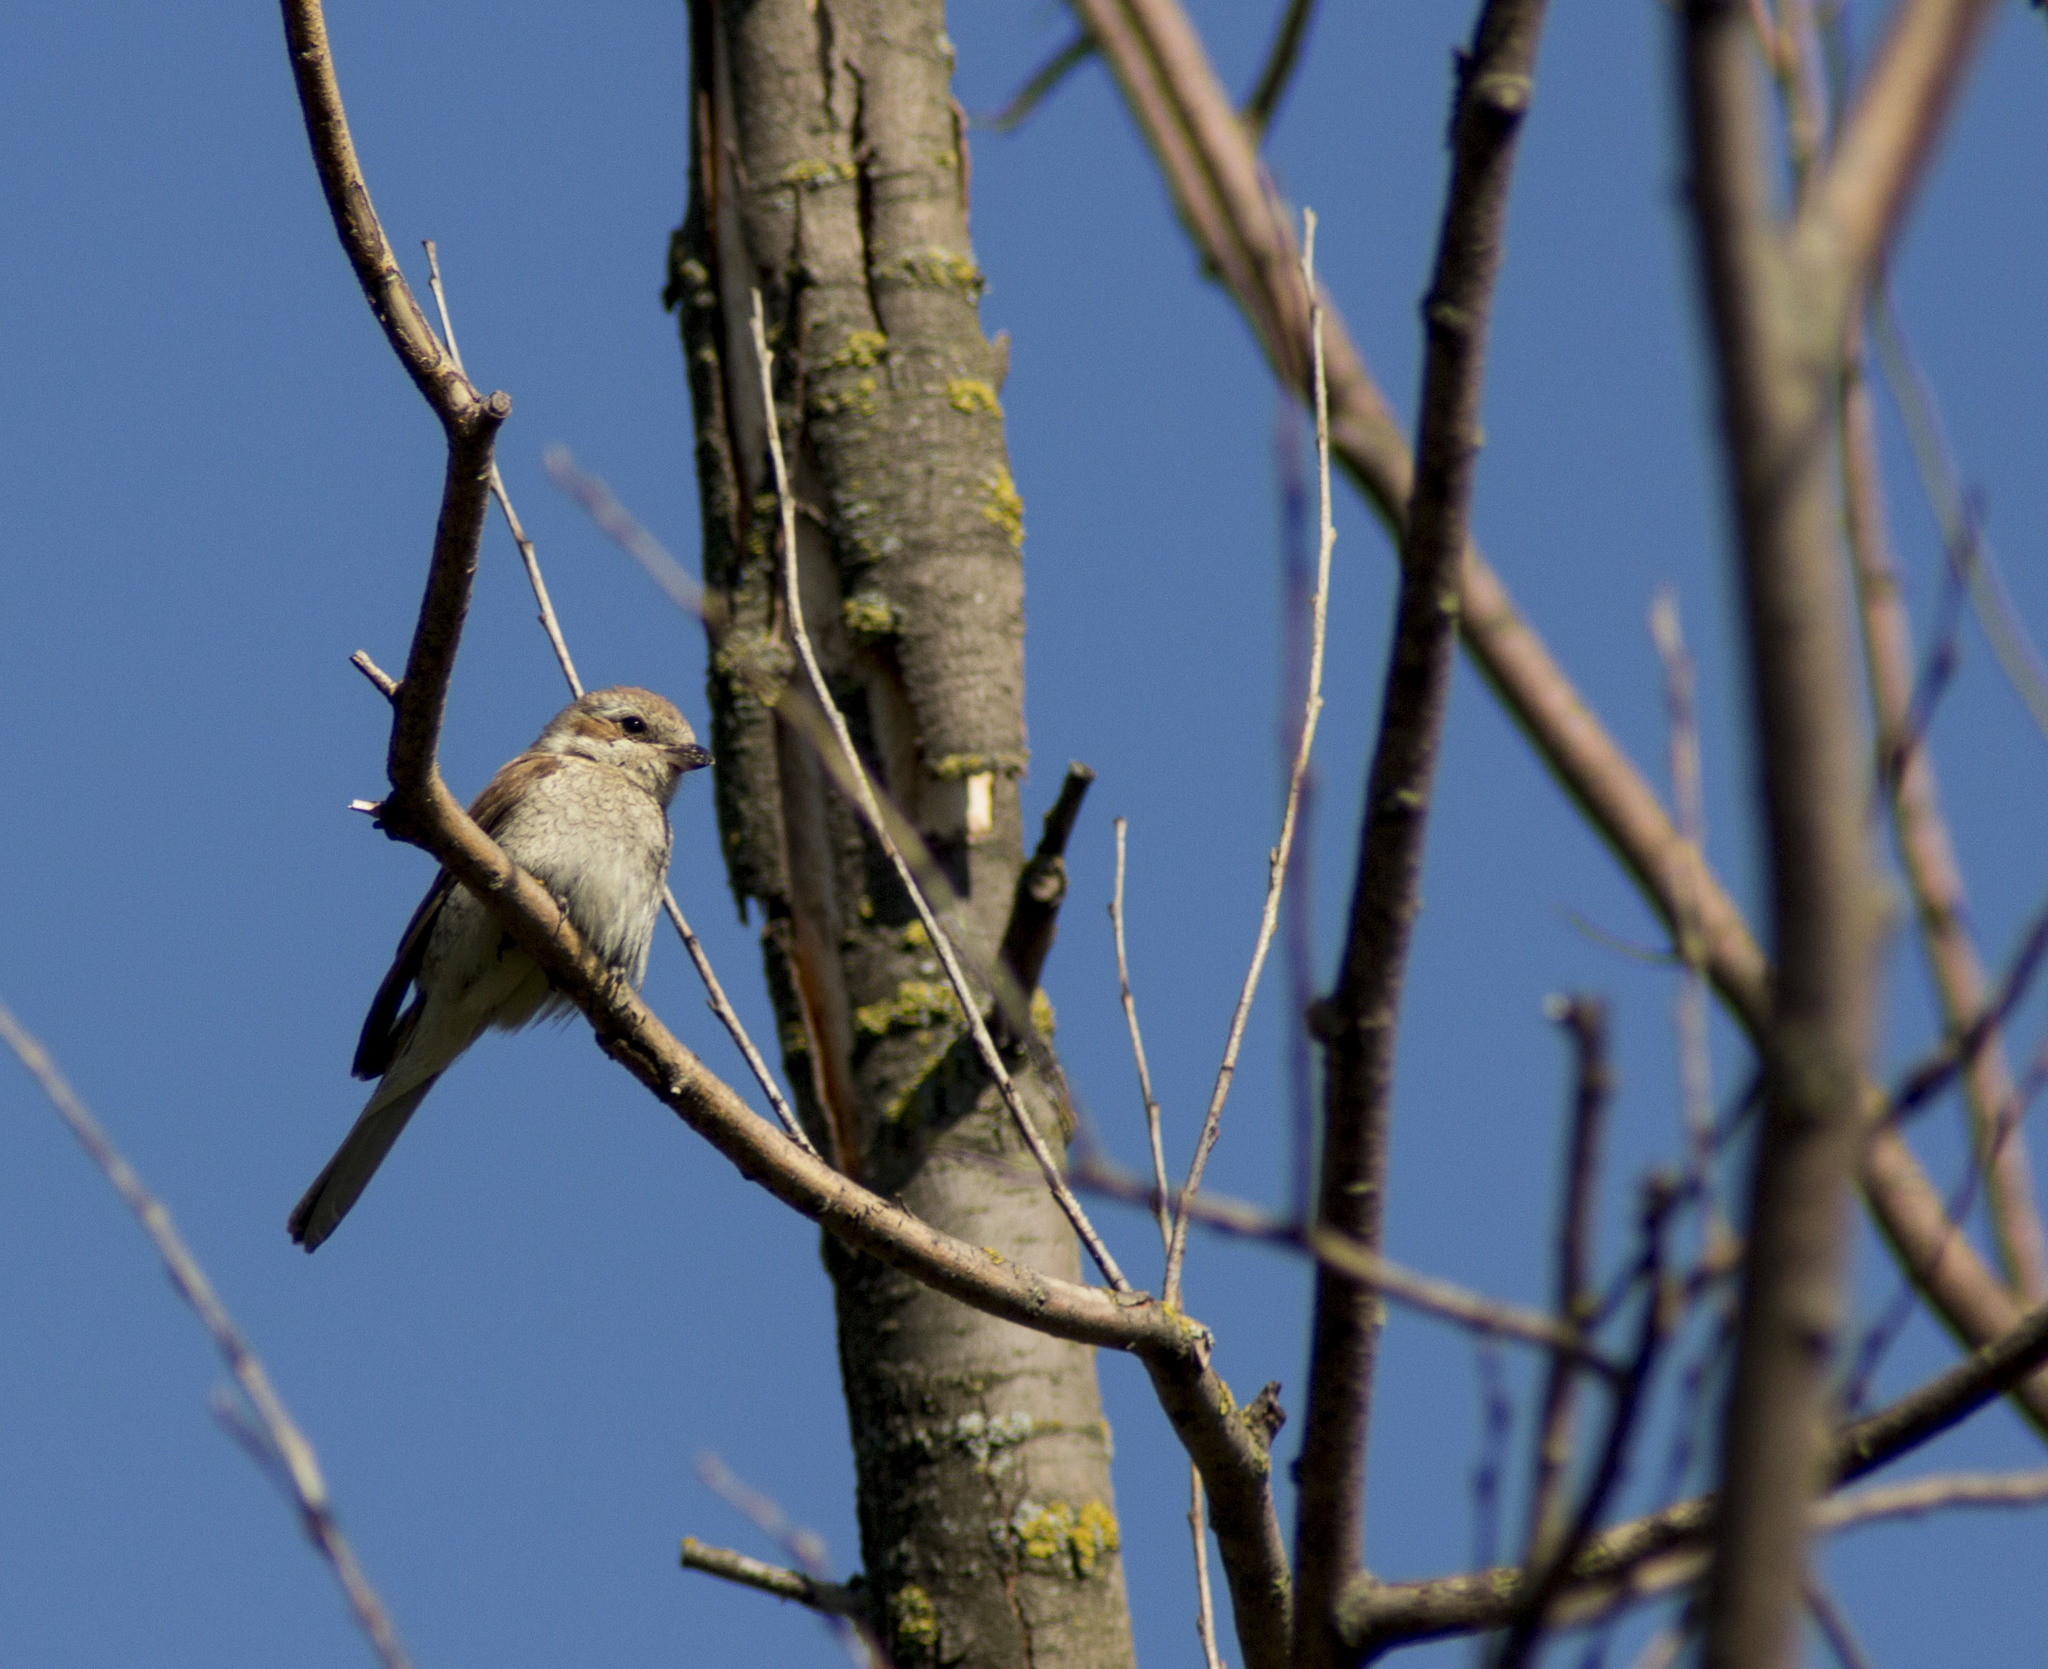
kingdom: Animalia
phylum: Chordata
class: Aves
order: Passeriformes
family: Laniidae
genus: Lanius
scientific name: Lanius collurio
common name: Red-backed shrike
